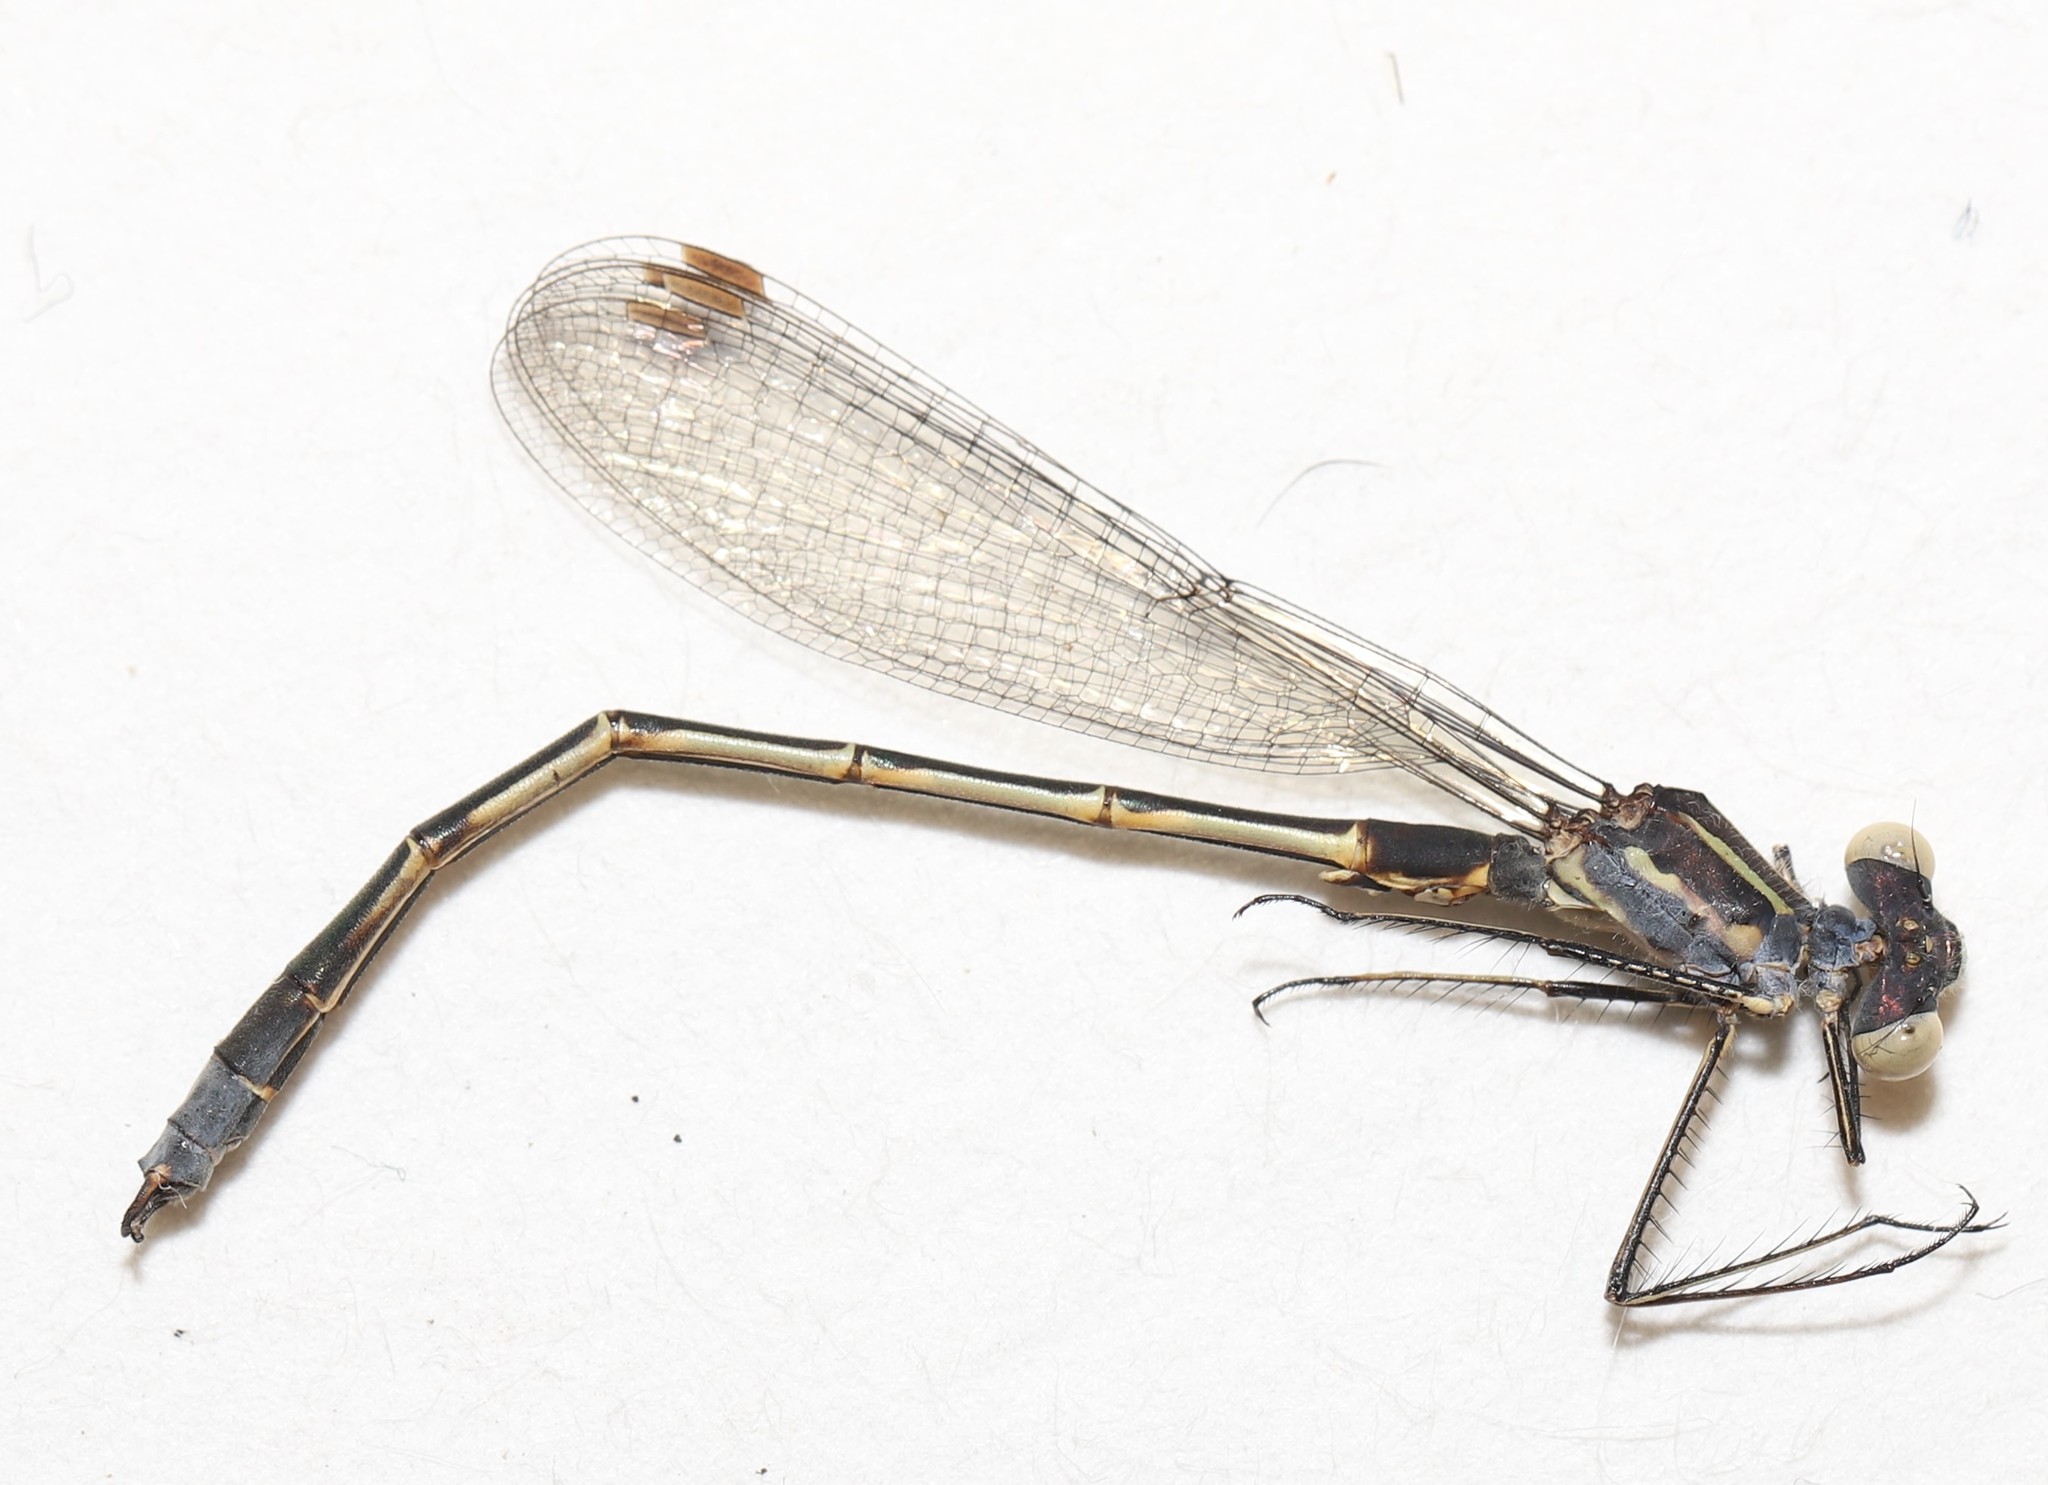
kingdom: Animalia
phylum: Arthropoda
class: Insecta
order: Odonata
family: Lestidae
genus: Lestes
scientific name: Lestes disjunctus
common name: Northern spreadwing
